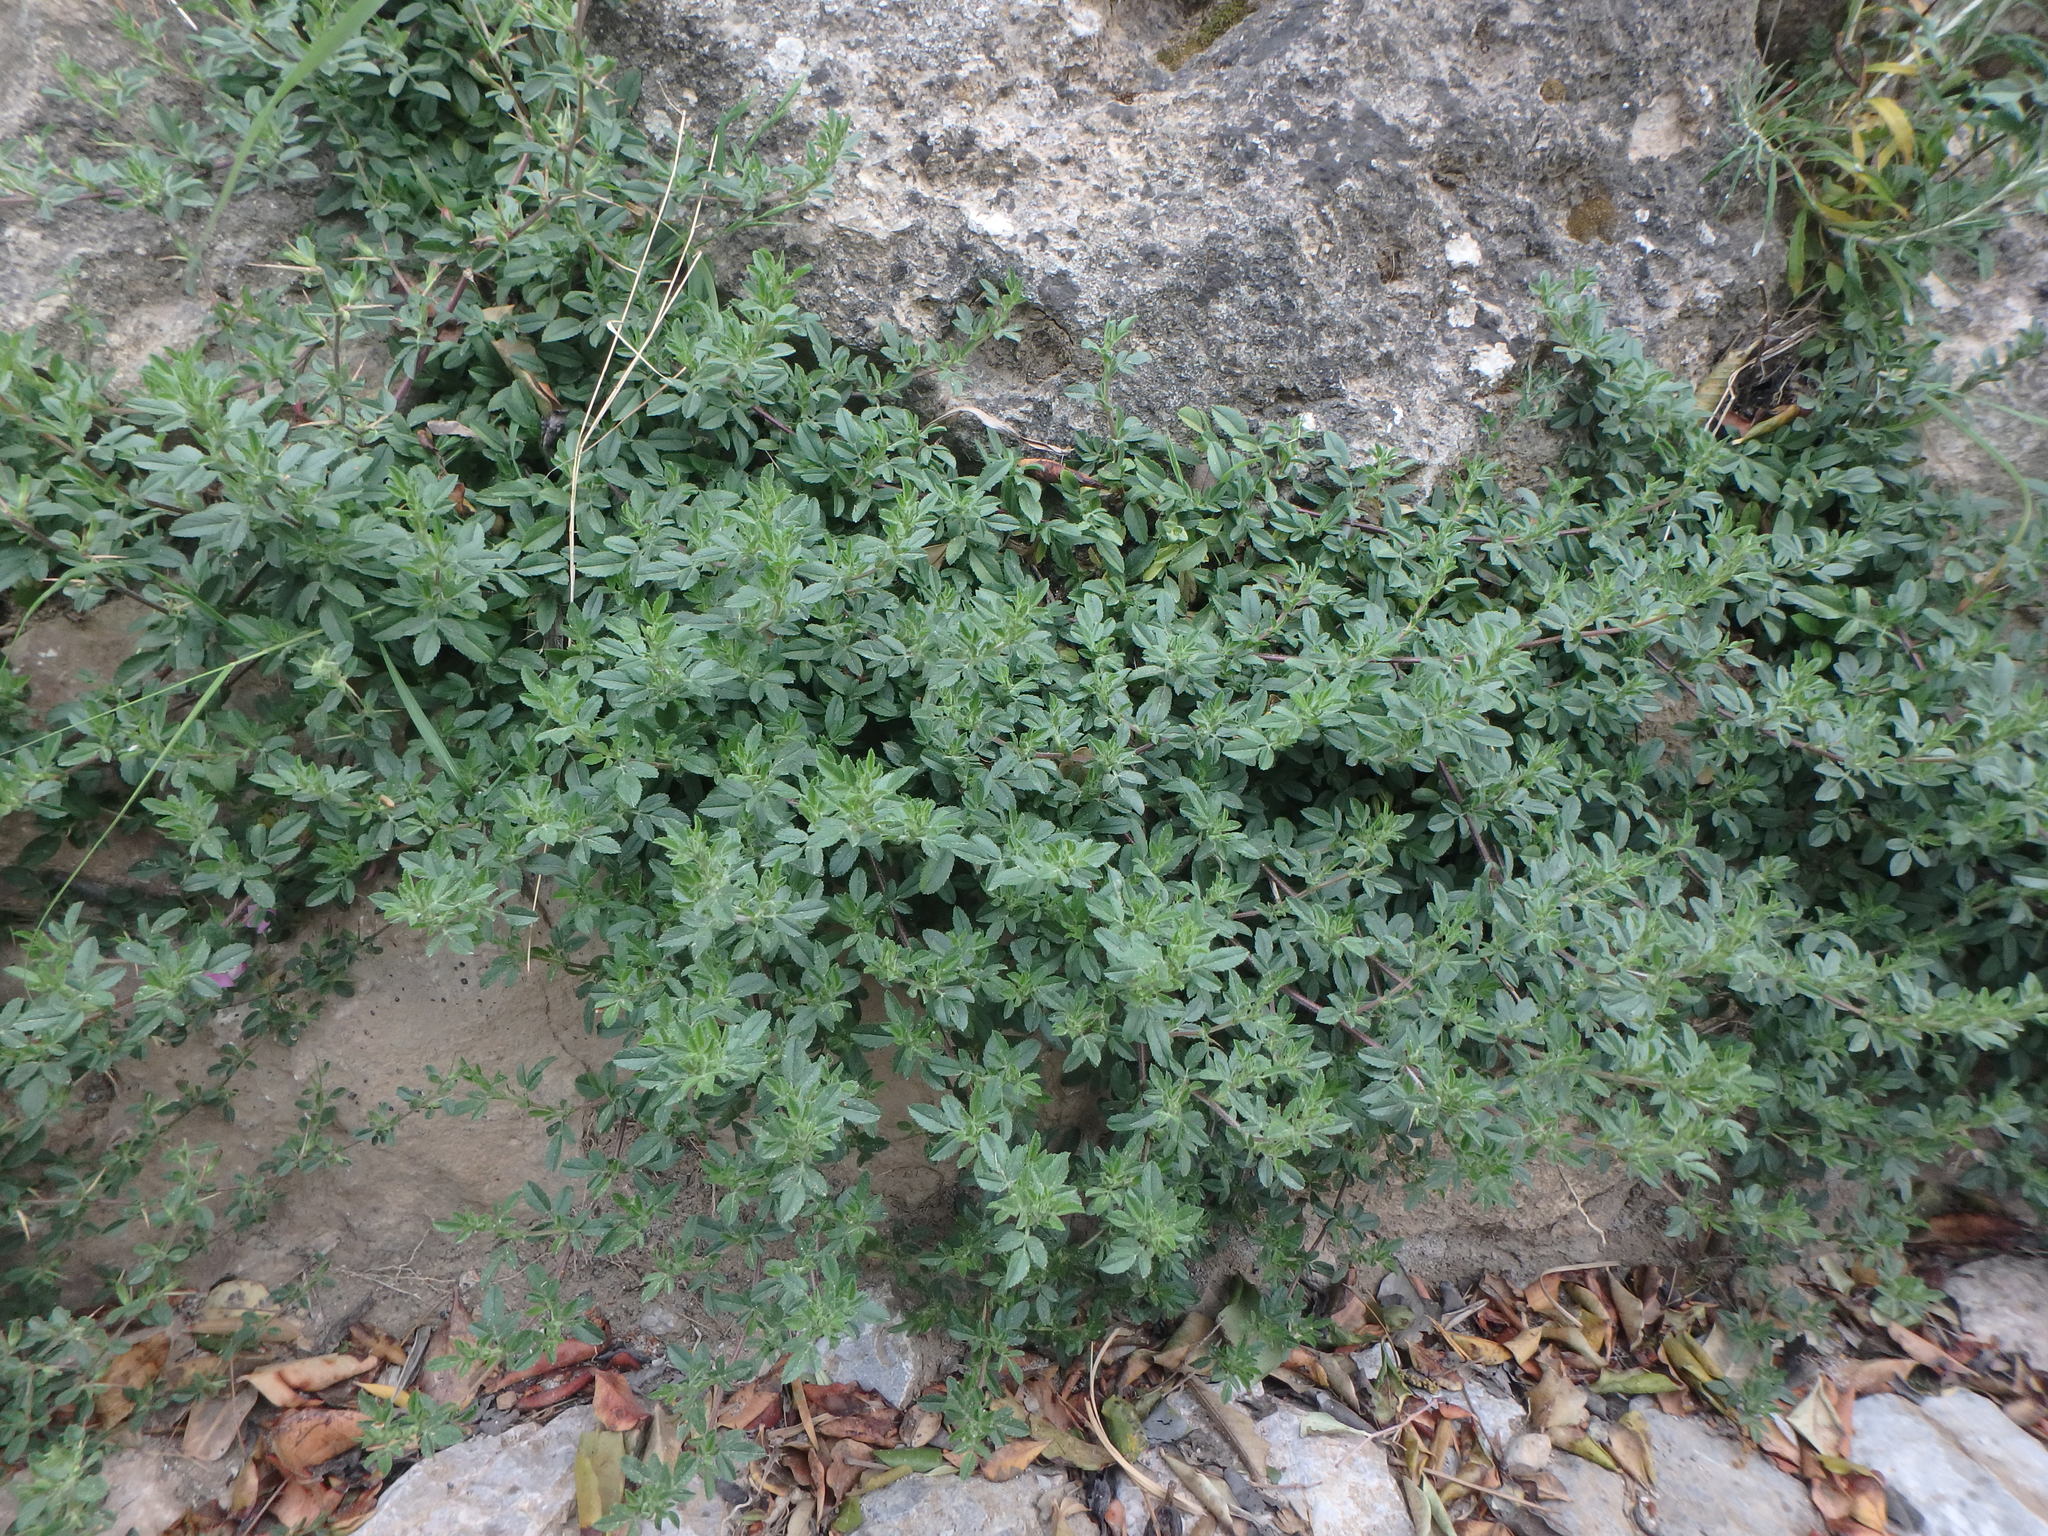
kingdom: Plantae
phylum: Tracheophyta
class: Magnoliopsida
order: Fabales
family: Fabaceae
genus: Ononis
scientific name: Ononis spinosa
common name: Spiny restharrow
